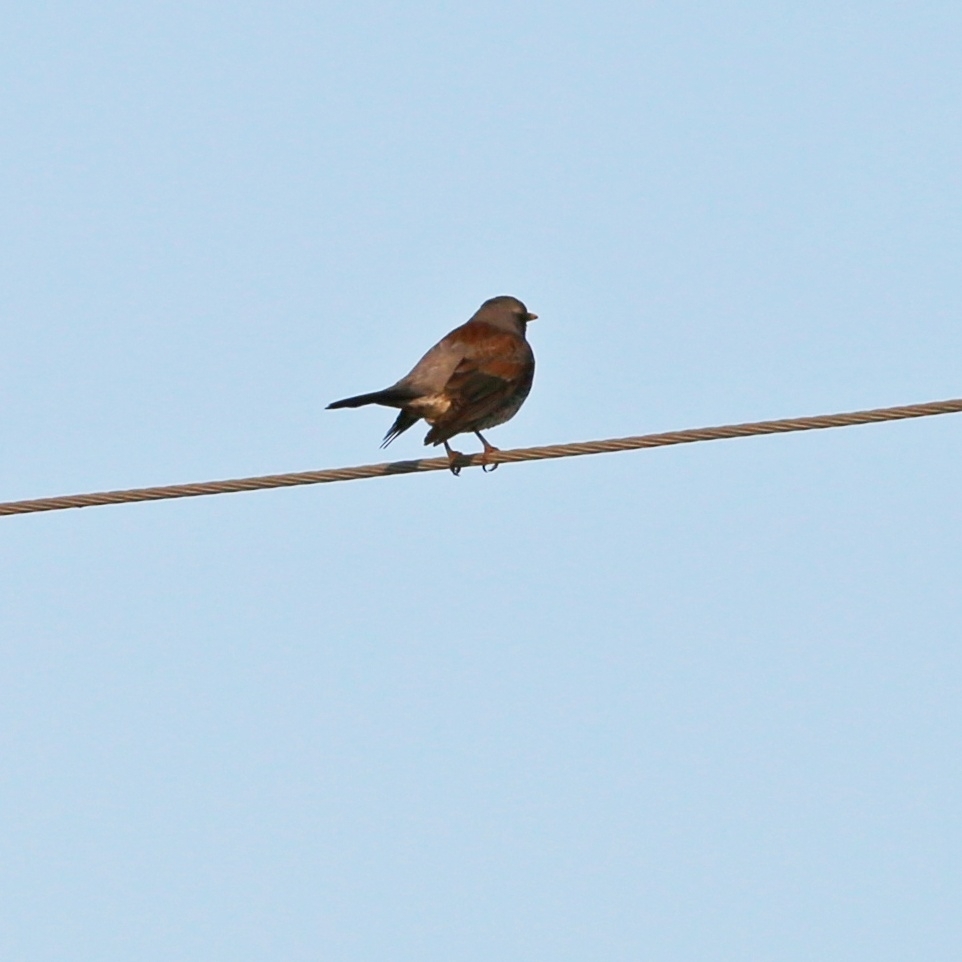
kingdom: Animalia
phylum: Chordata
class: Aves
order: Passeriformes
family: Turdidae
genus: Turdus
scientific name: Turdus pilaris
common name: Fieldfare
